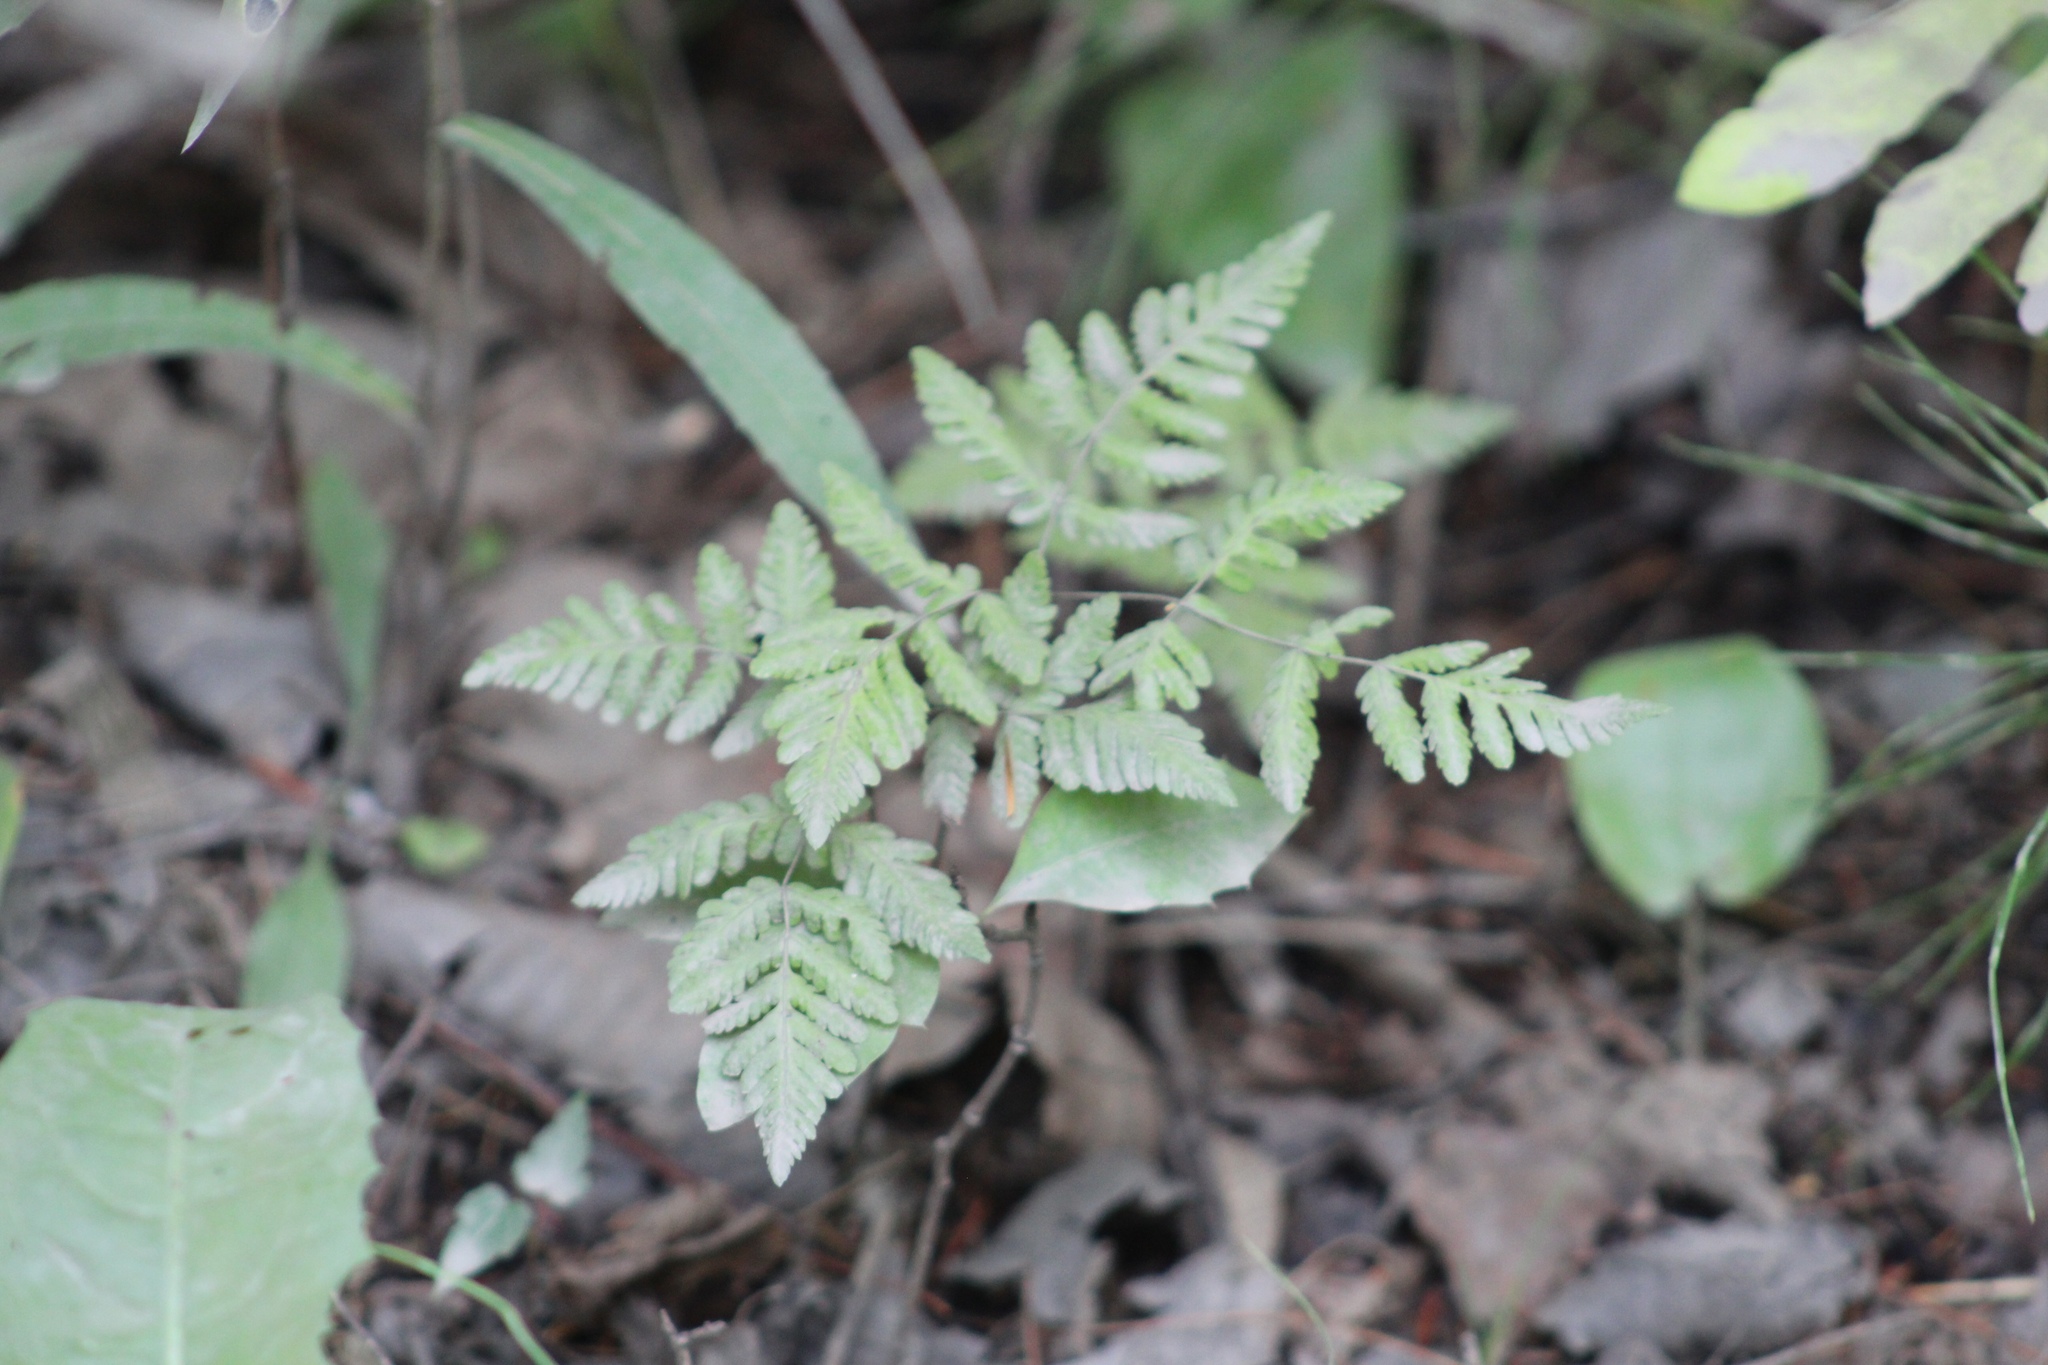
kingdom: Plantae
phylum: Tracheophyta
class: Polypodiopsida
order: Polypodiales
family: Cystopteridaceae
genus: Gymnocarpium
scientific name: Gymnocarpium dryopteris
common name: Oak fern
